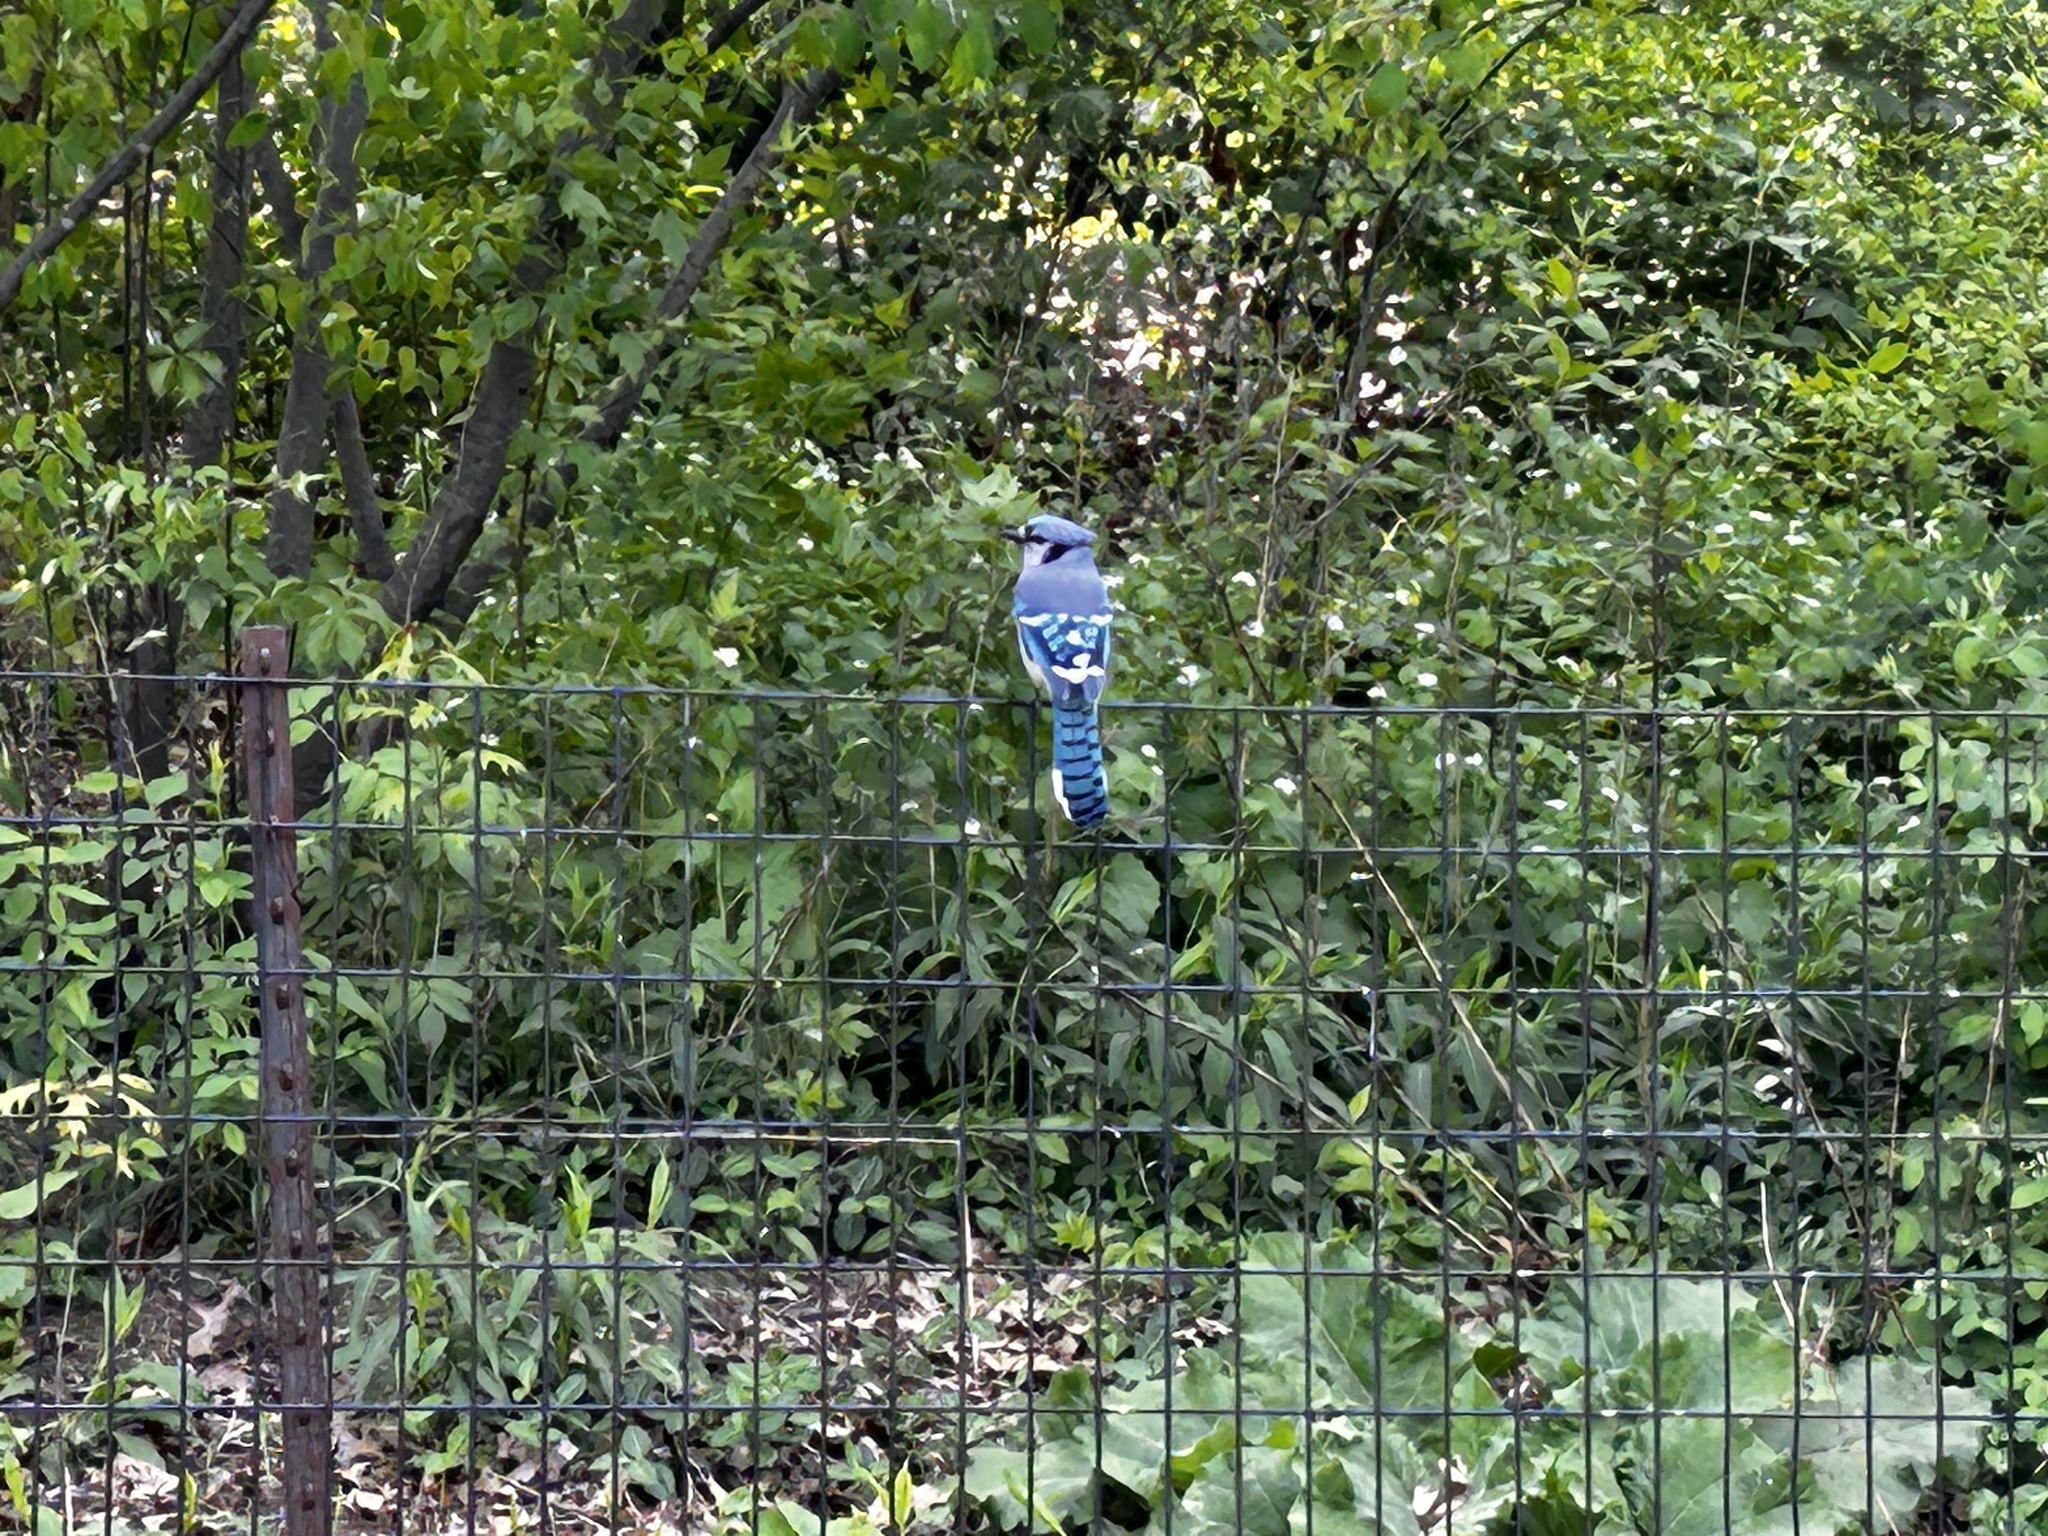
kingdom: Animalia
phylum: Chordata
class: Aves
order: Passeriformes
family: Corvidae
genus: Cyanocitta
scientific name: Cyanocitta cristata
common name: Blue jay
